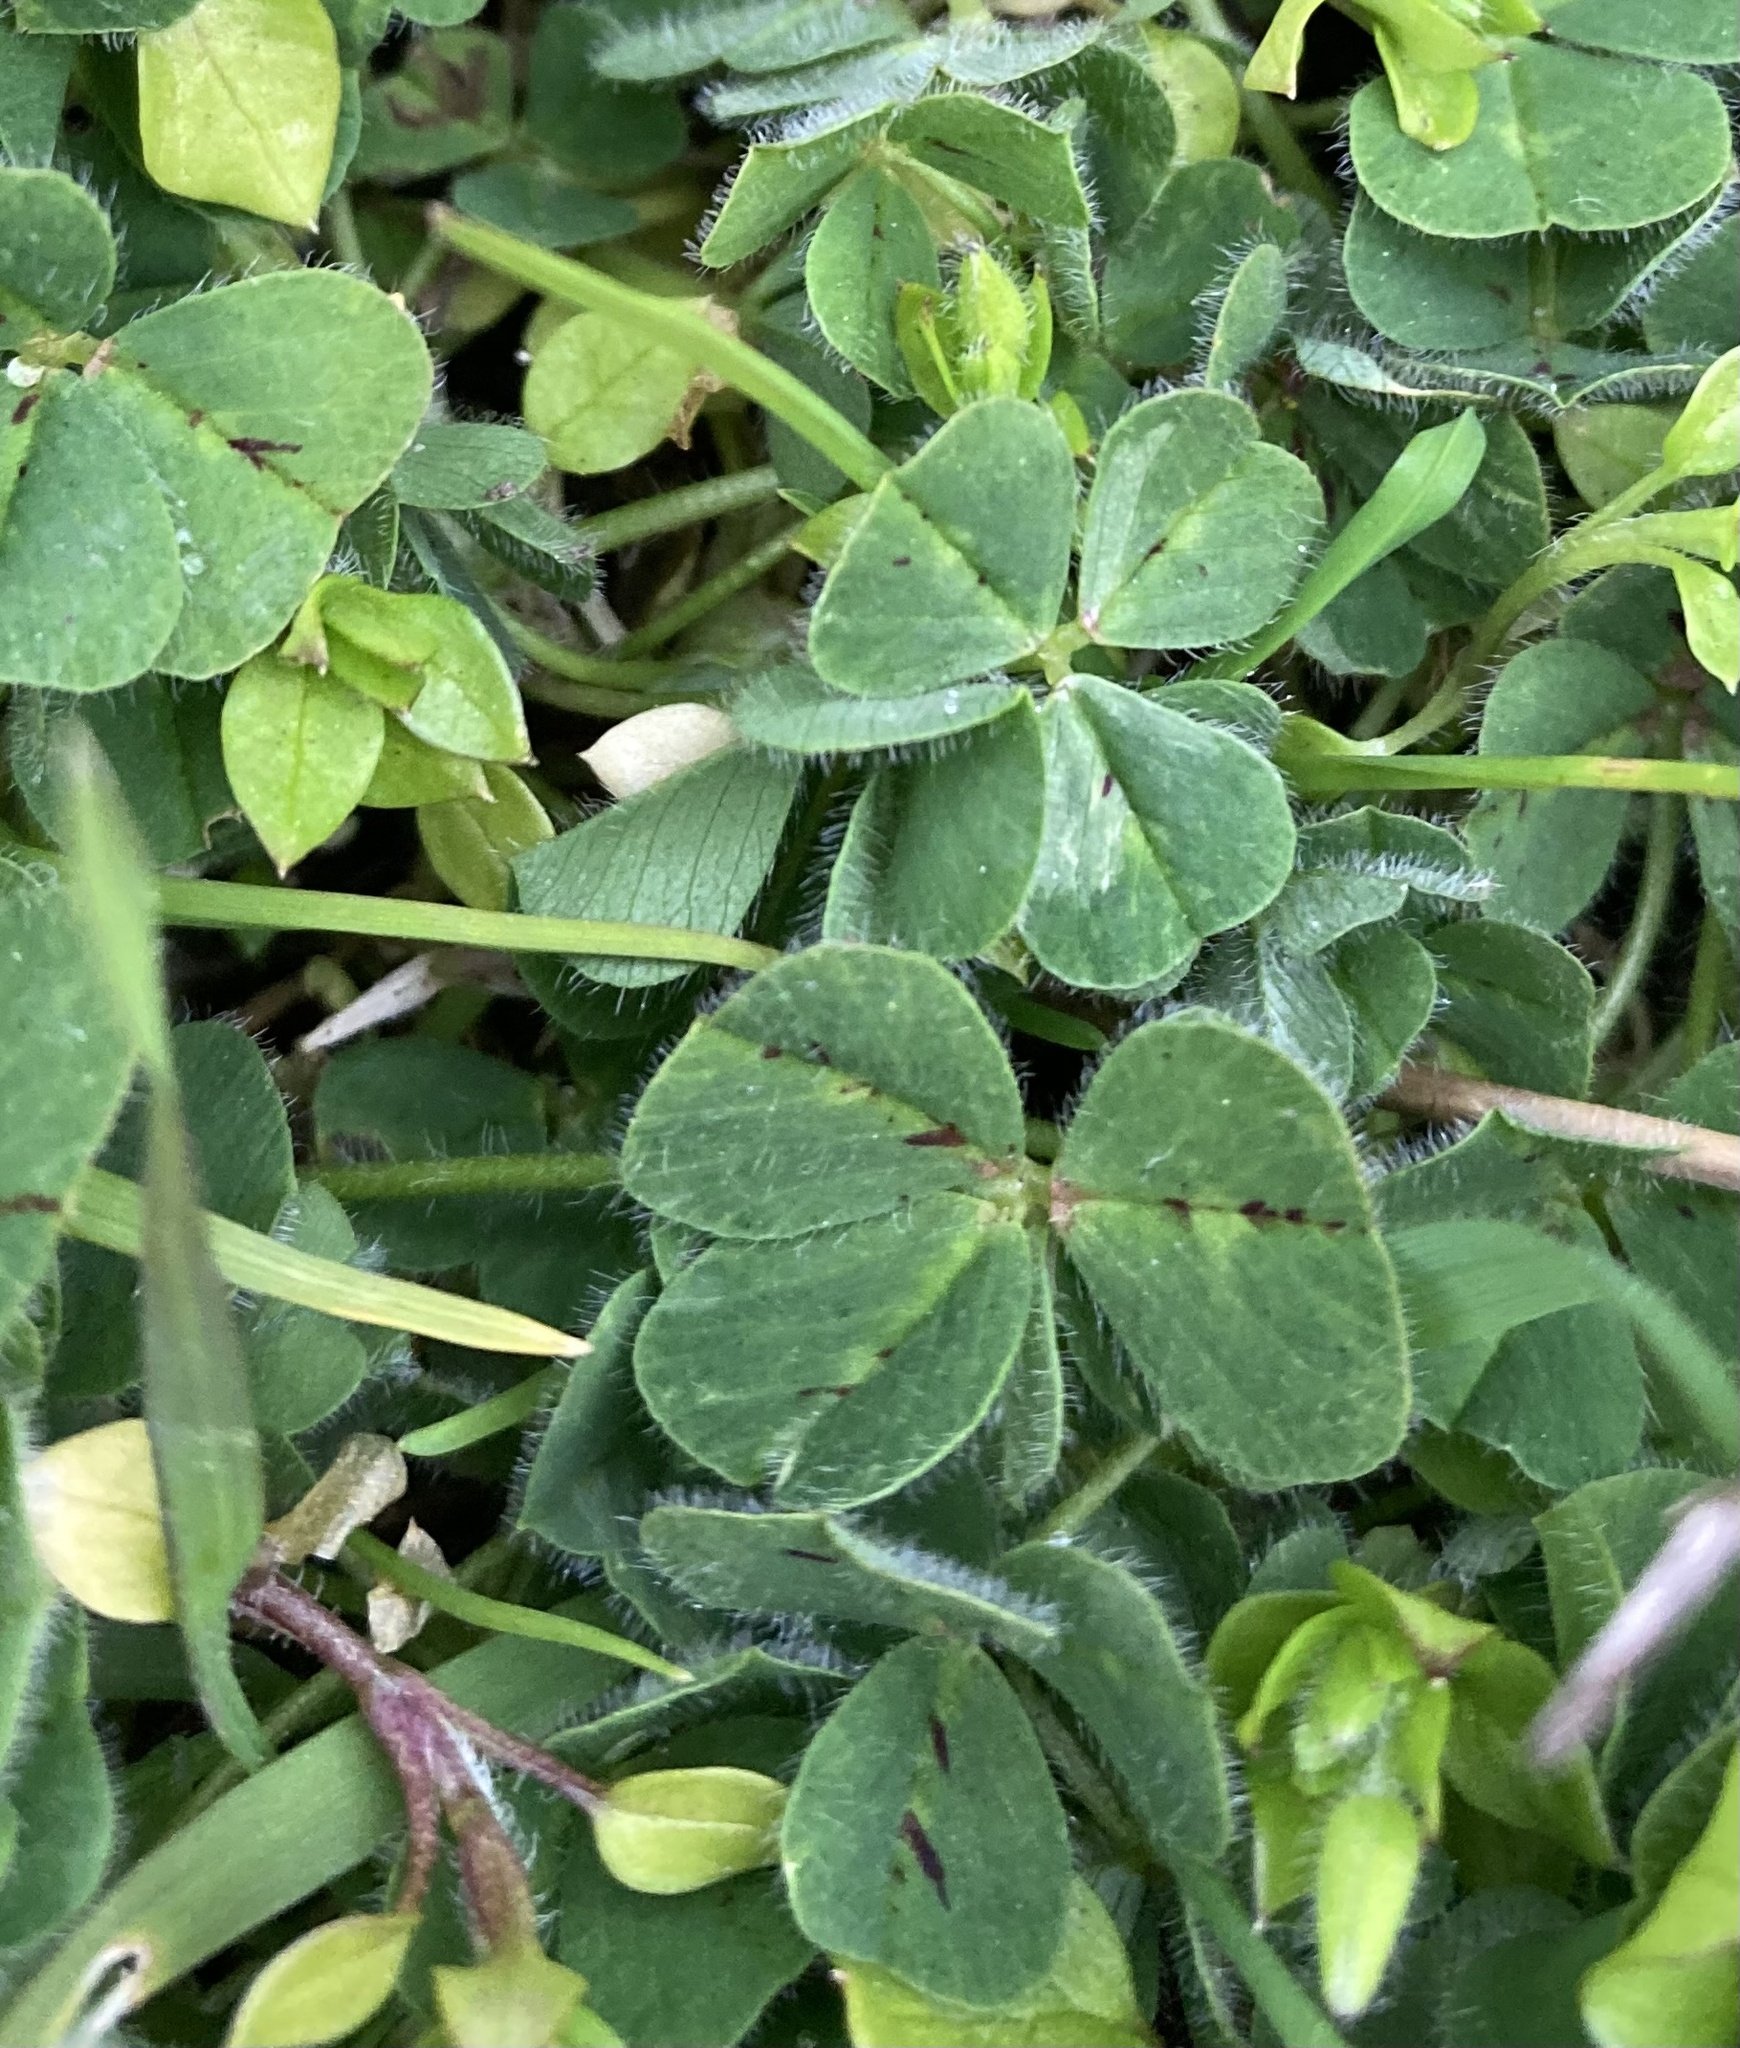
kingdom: Plantae
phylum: Tracheophyta
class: Magnoliopsida
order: Fabales
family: Fabaceae
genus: Trifolium
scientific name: Trifolium subterraneum
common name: Subterranean clover
